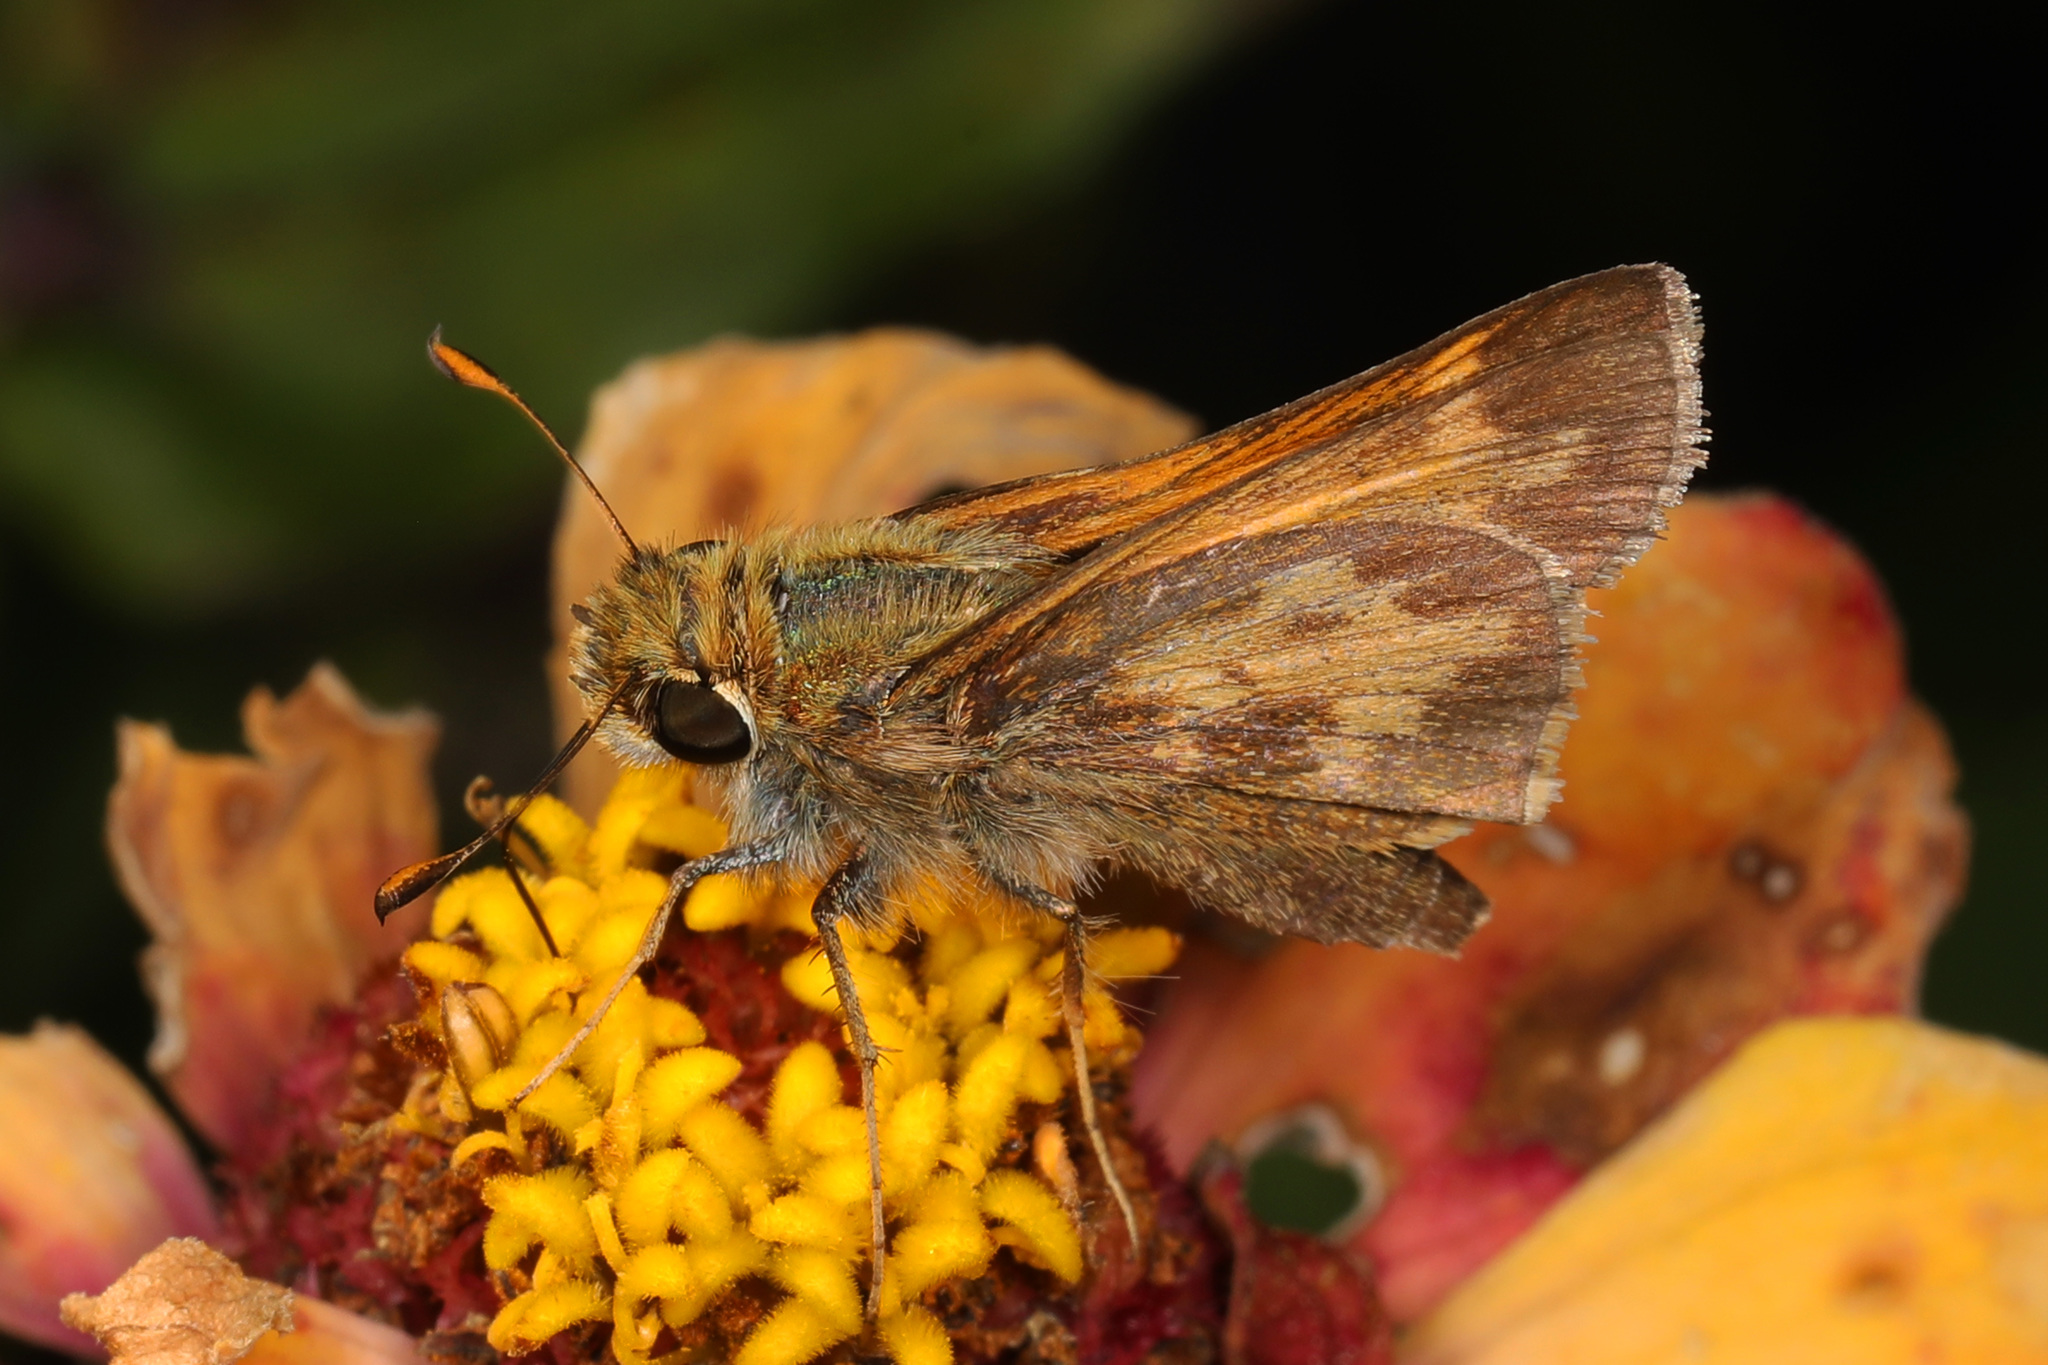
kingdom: Animalia
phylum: Arthropoda
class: Insecta
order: Lepidoptera
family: Hesperiidae
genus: Atalopedes
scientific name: Atalopedes
